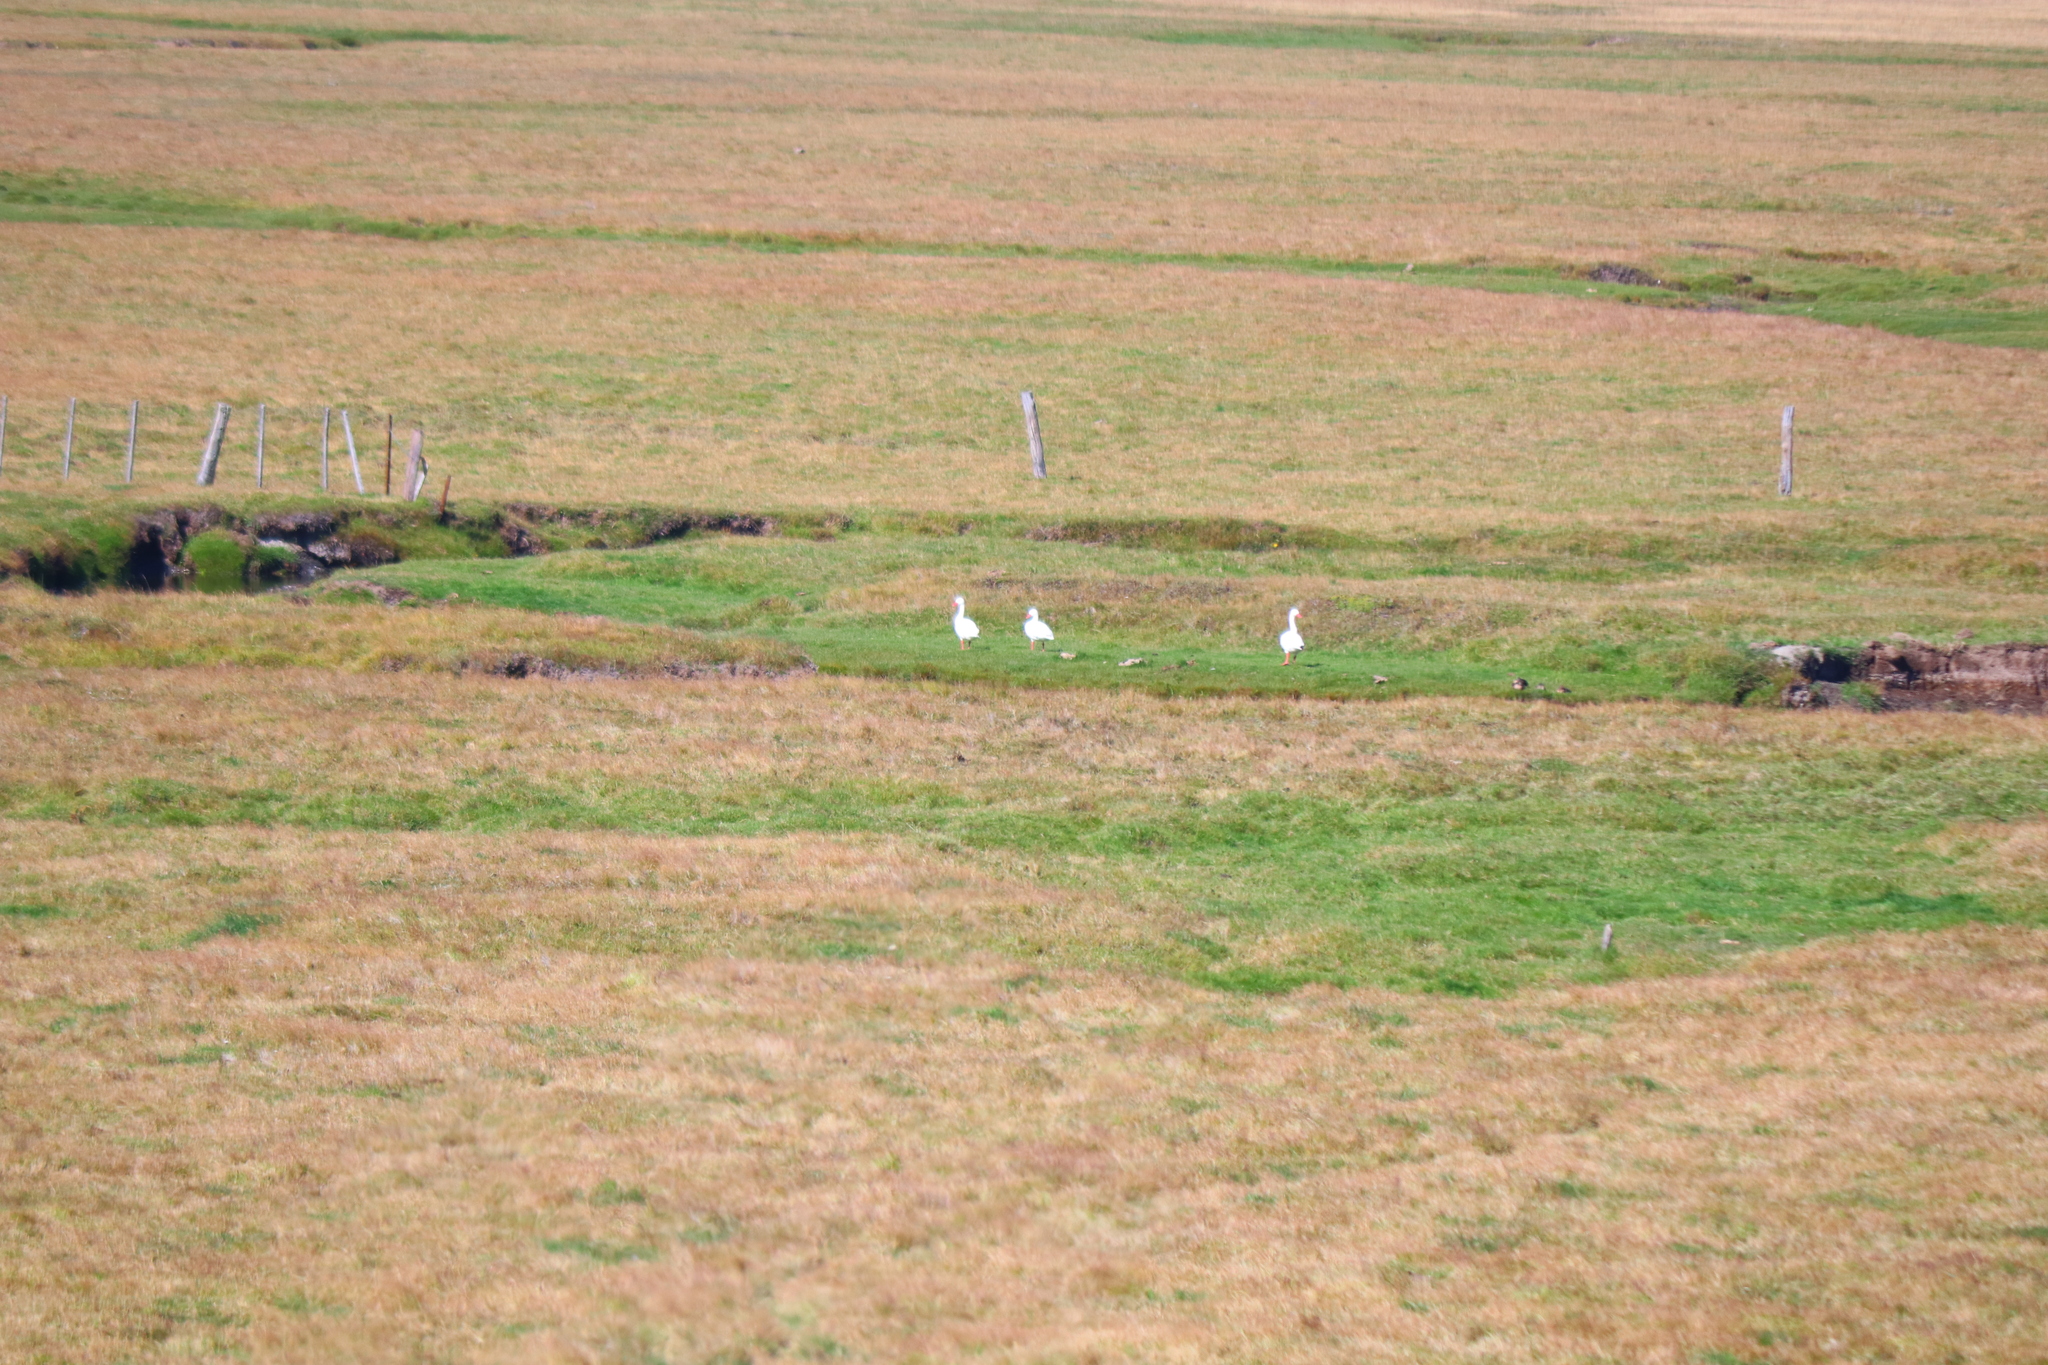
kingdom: Animalia
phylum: Chordata
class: Aves
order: Anseriformes
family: Anatidae
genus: Coscoroba
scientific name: Coscoroba coscoroba
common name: Coscoroba swan
